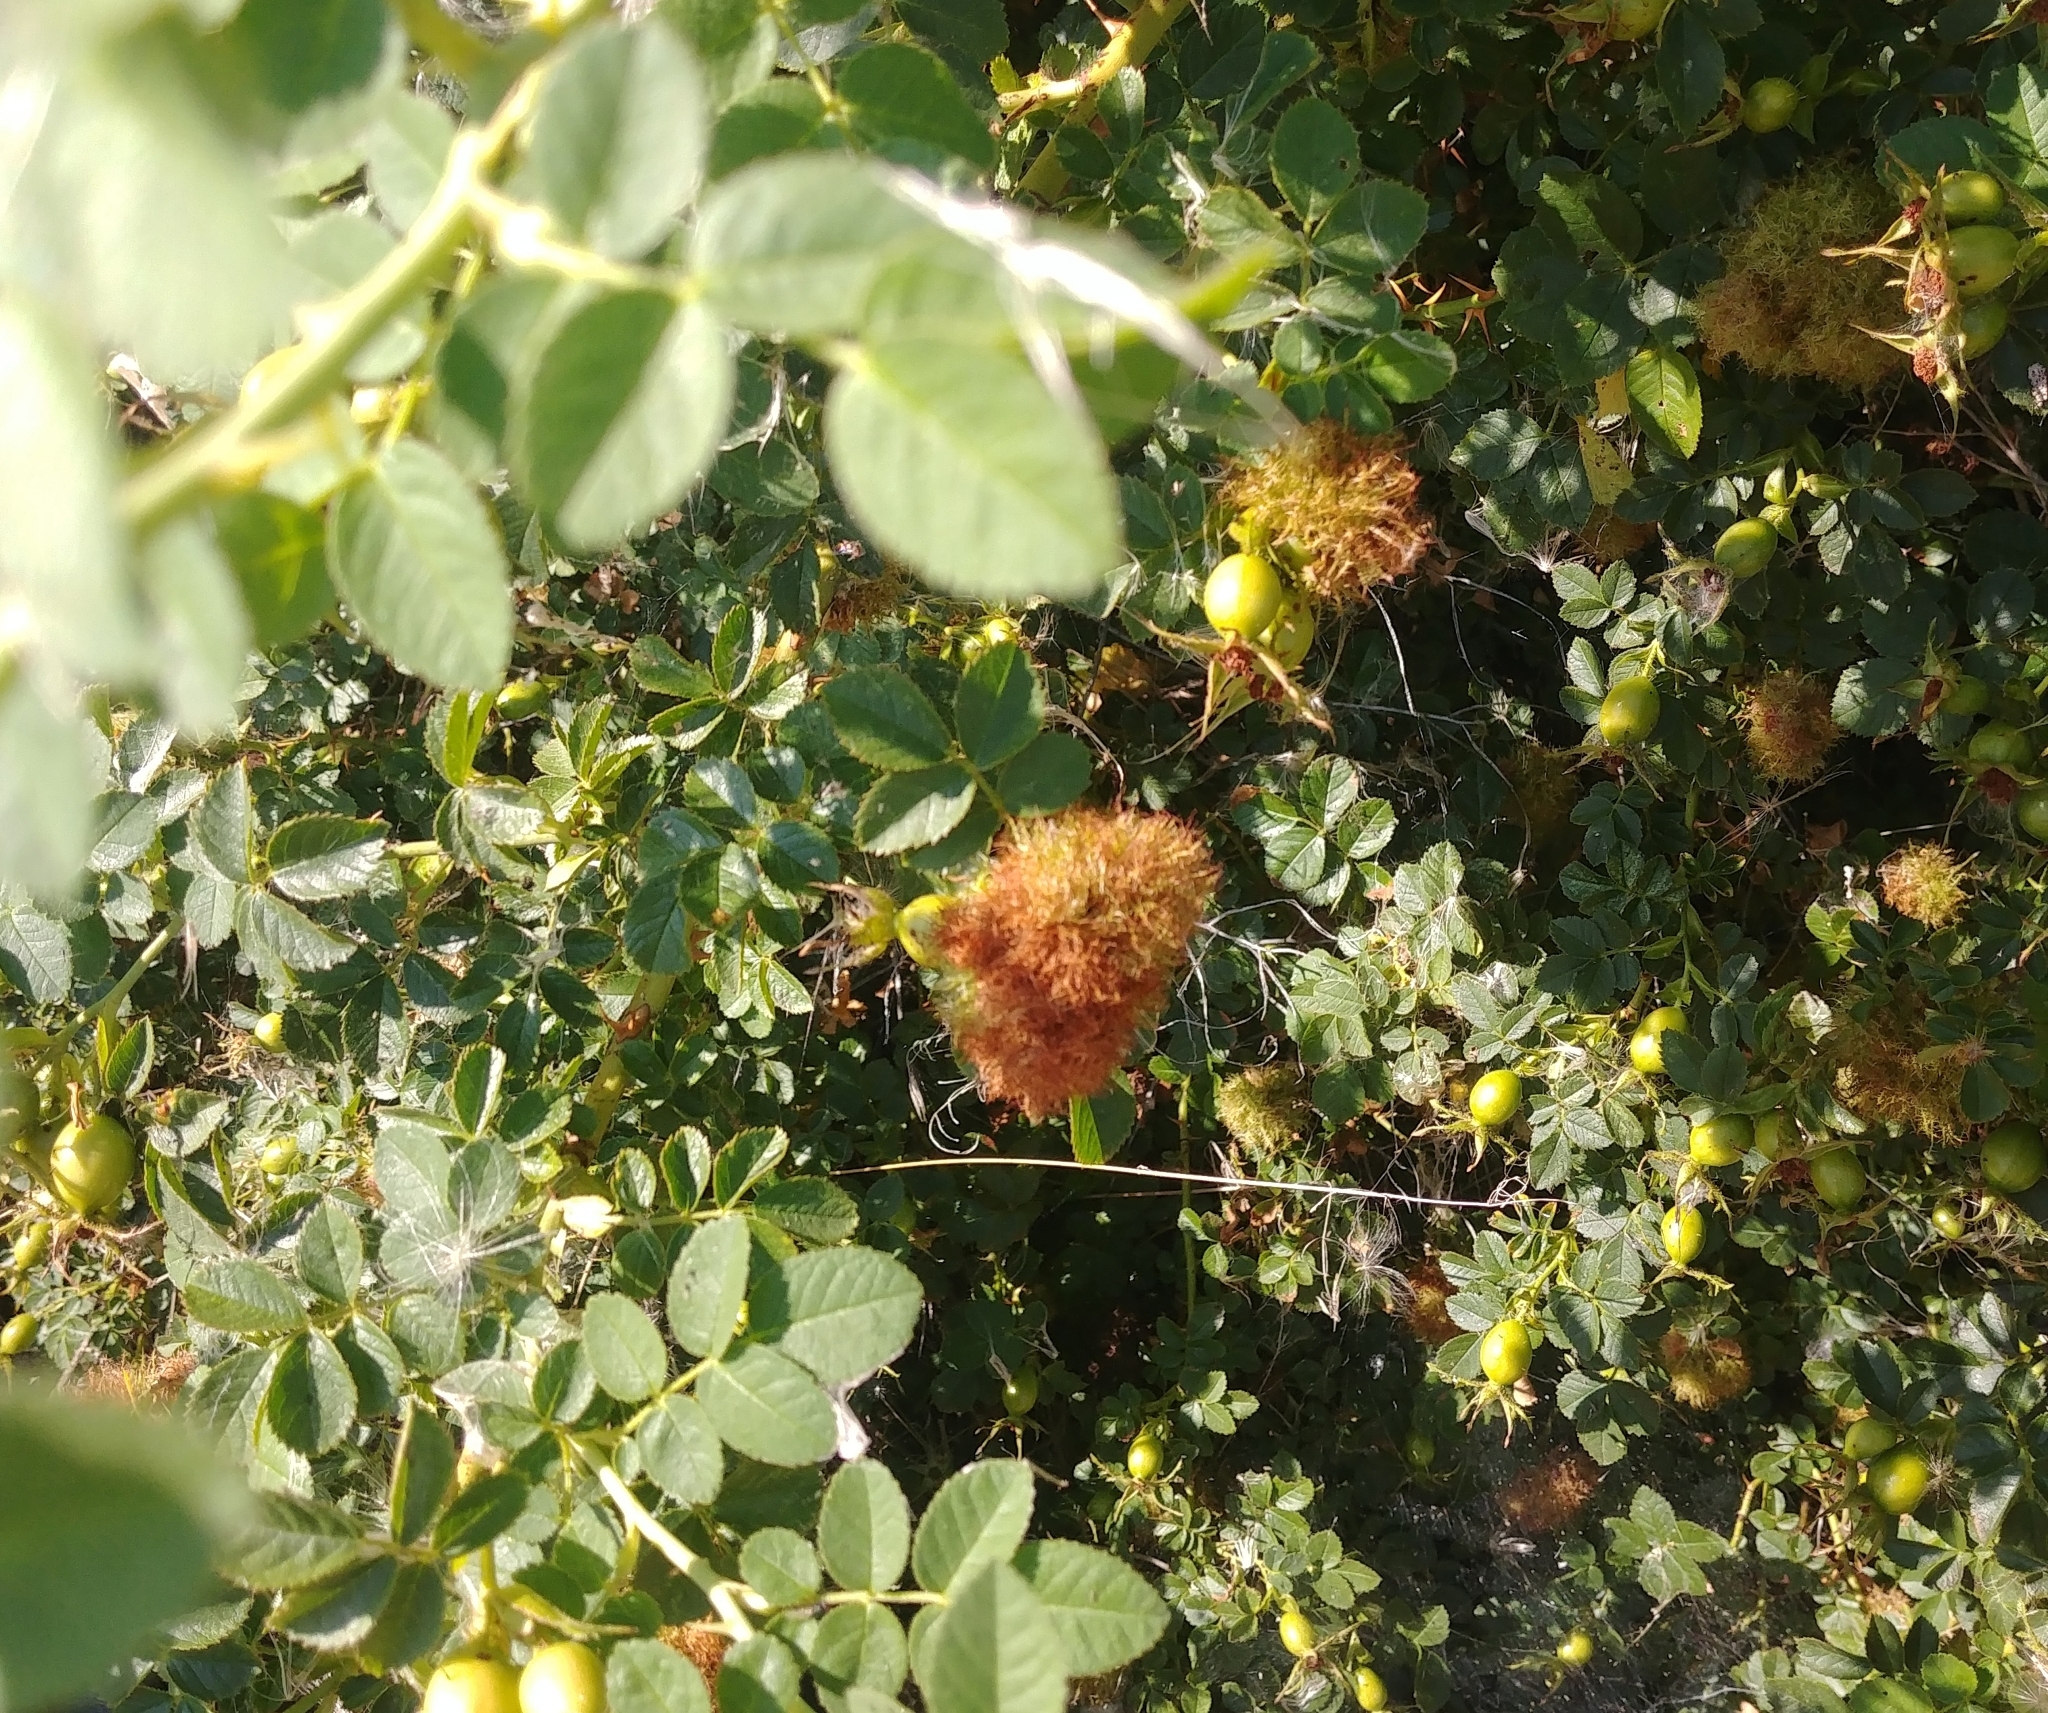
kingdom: Animalia
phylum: Arthropoda
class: Insecta
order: Hymenoptera
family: Cynipidae
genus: Diplolepis
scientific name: Diplolepis rosae
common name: Bedeguar gall
